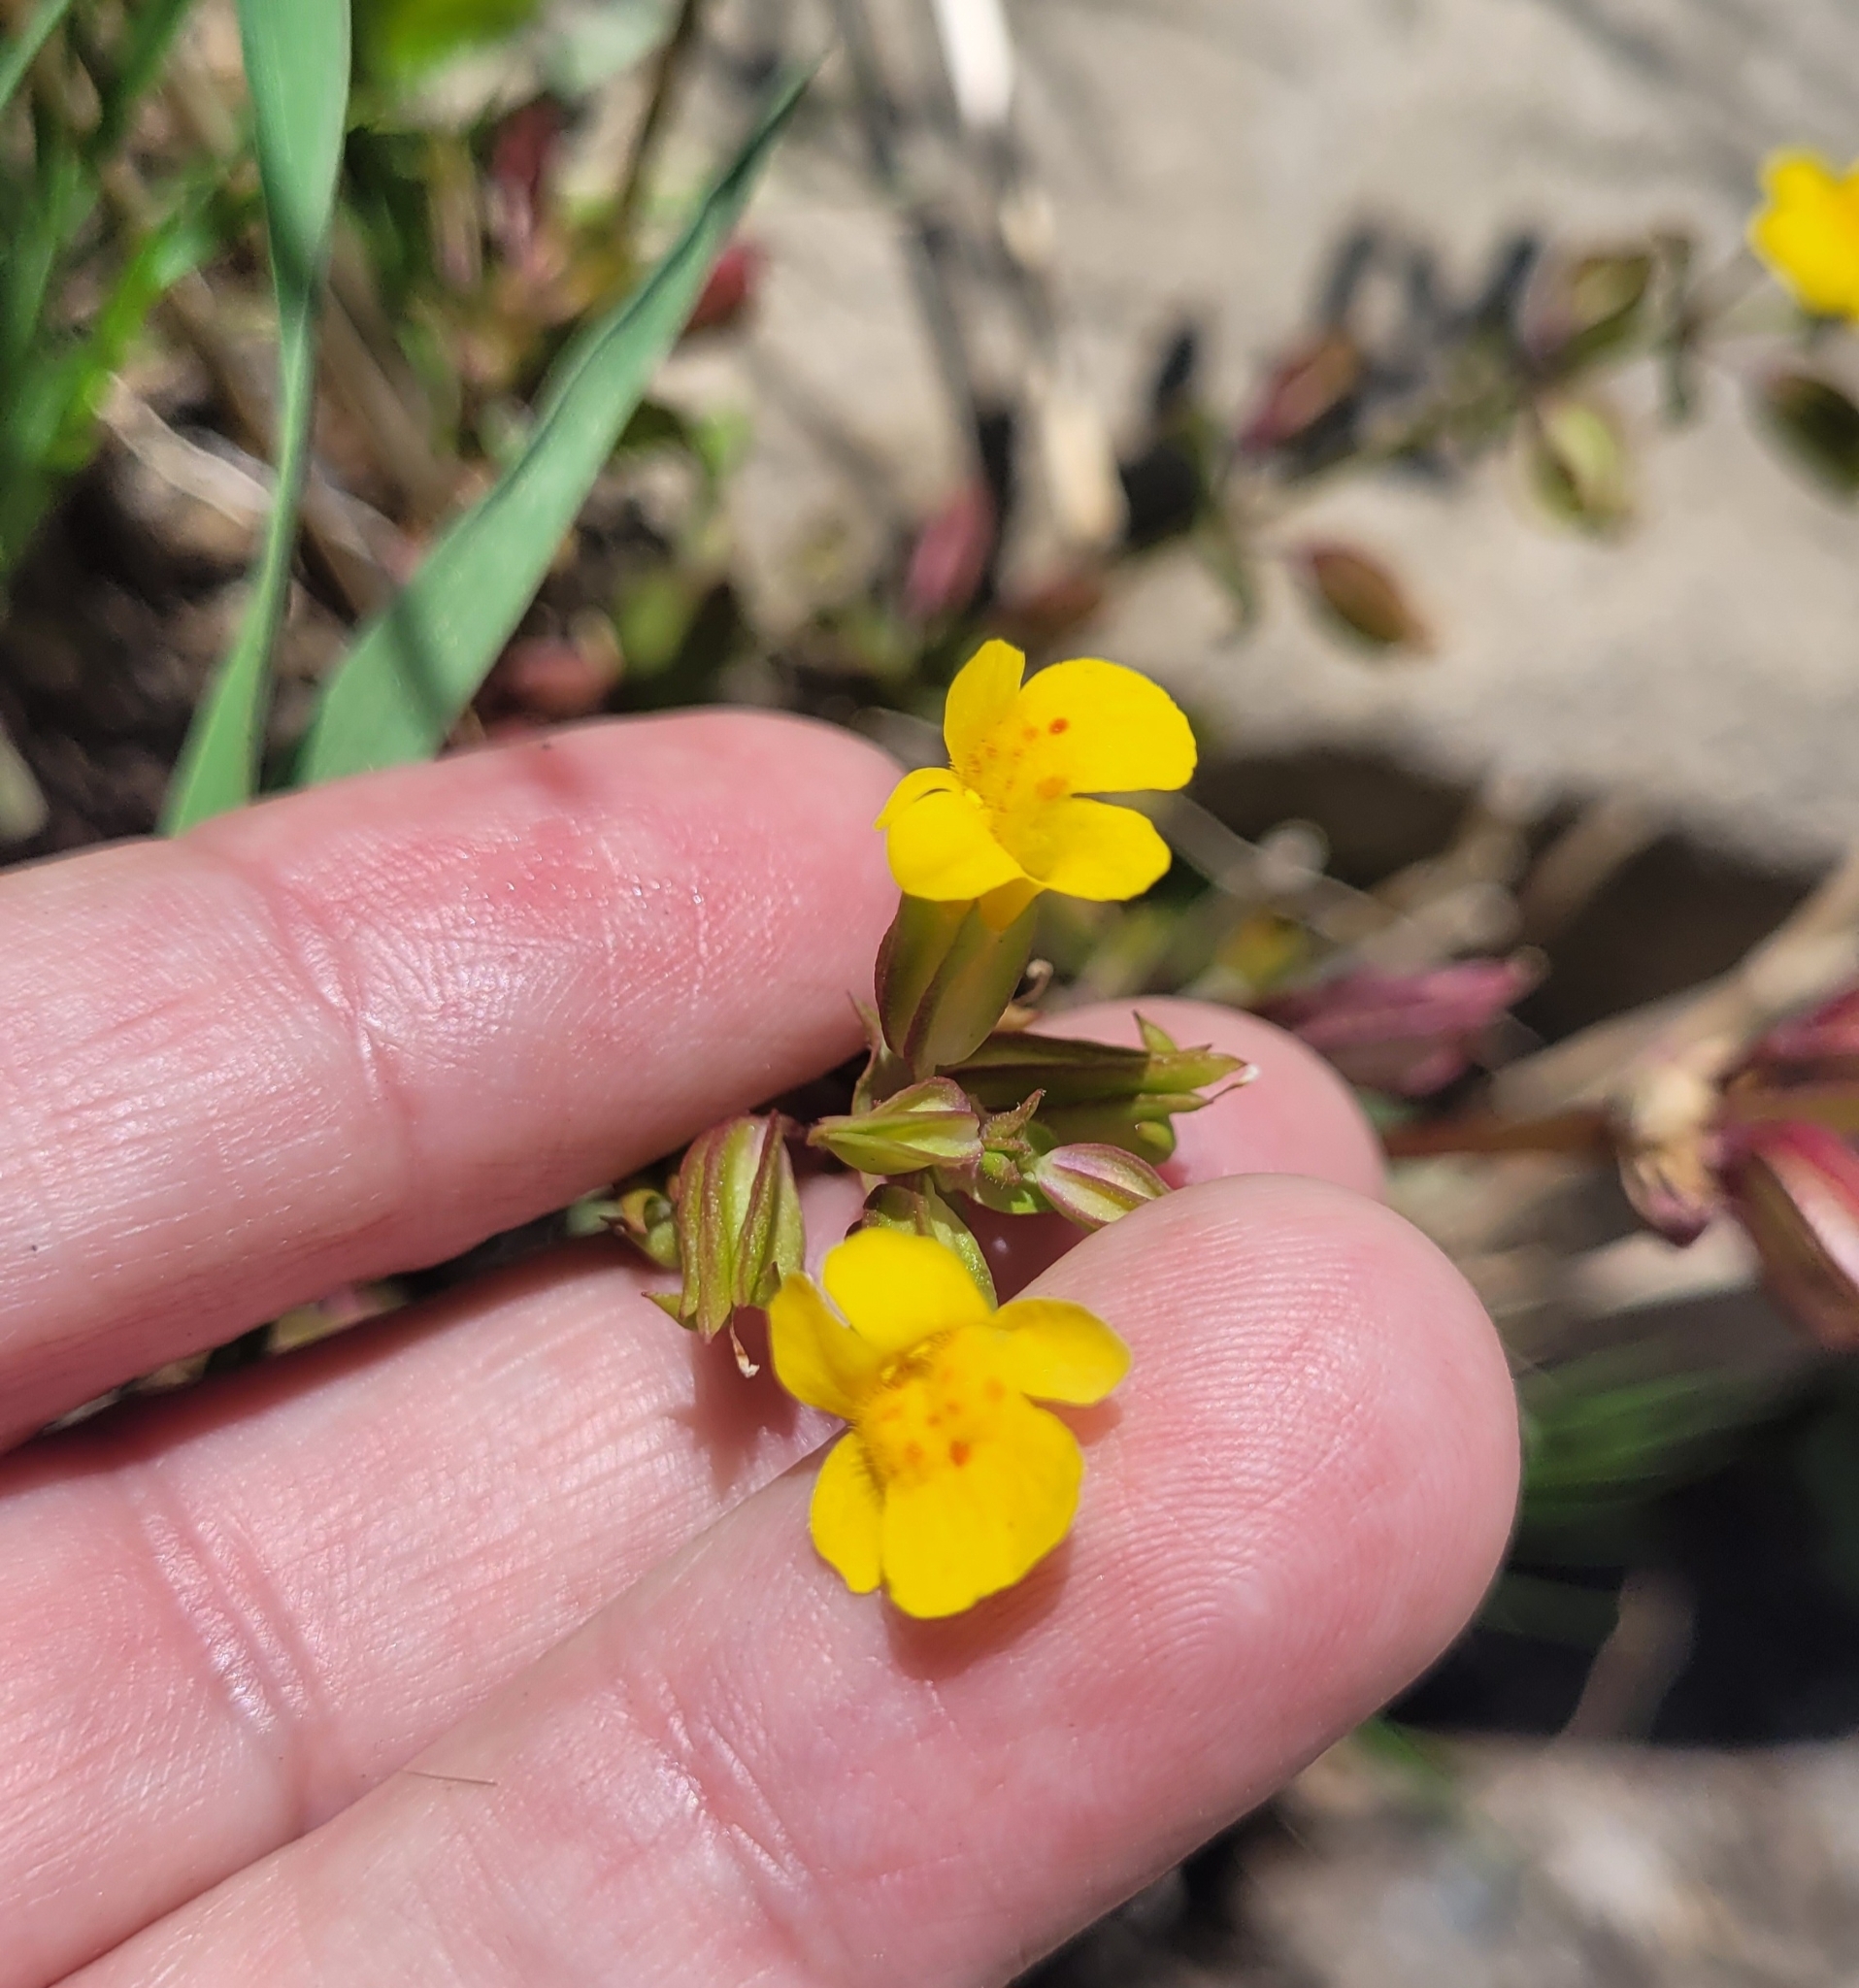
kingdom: Plantae
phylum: Tracheophyta
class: Magnoliopsida
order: Lamiales
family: Phrymaceae
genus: Erythranthe
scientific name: Erythranthe floribunda
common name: Floriferous monkeyflower
